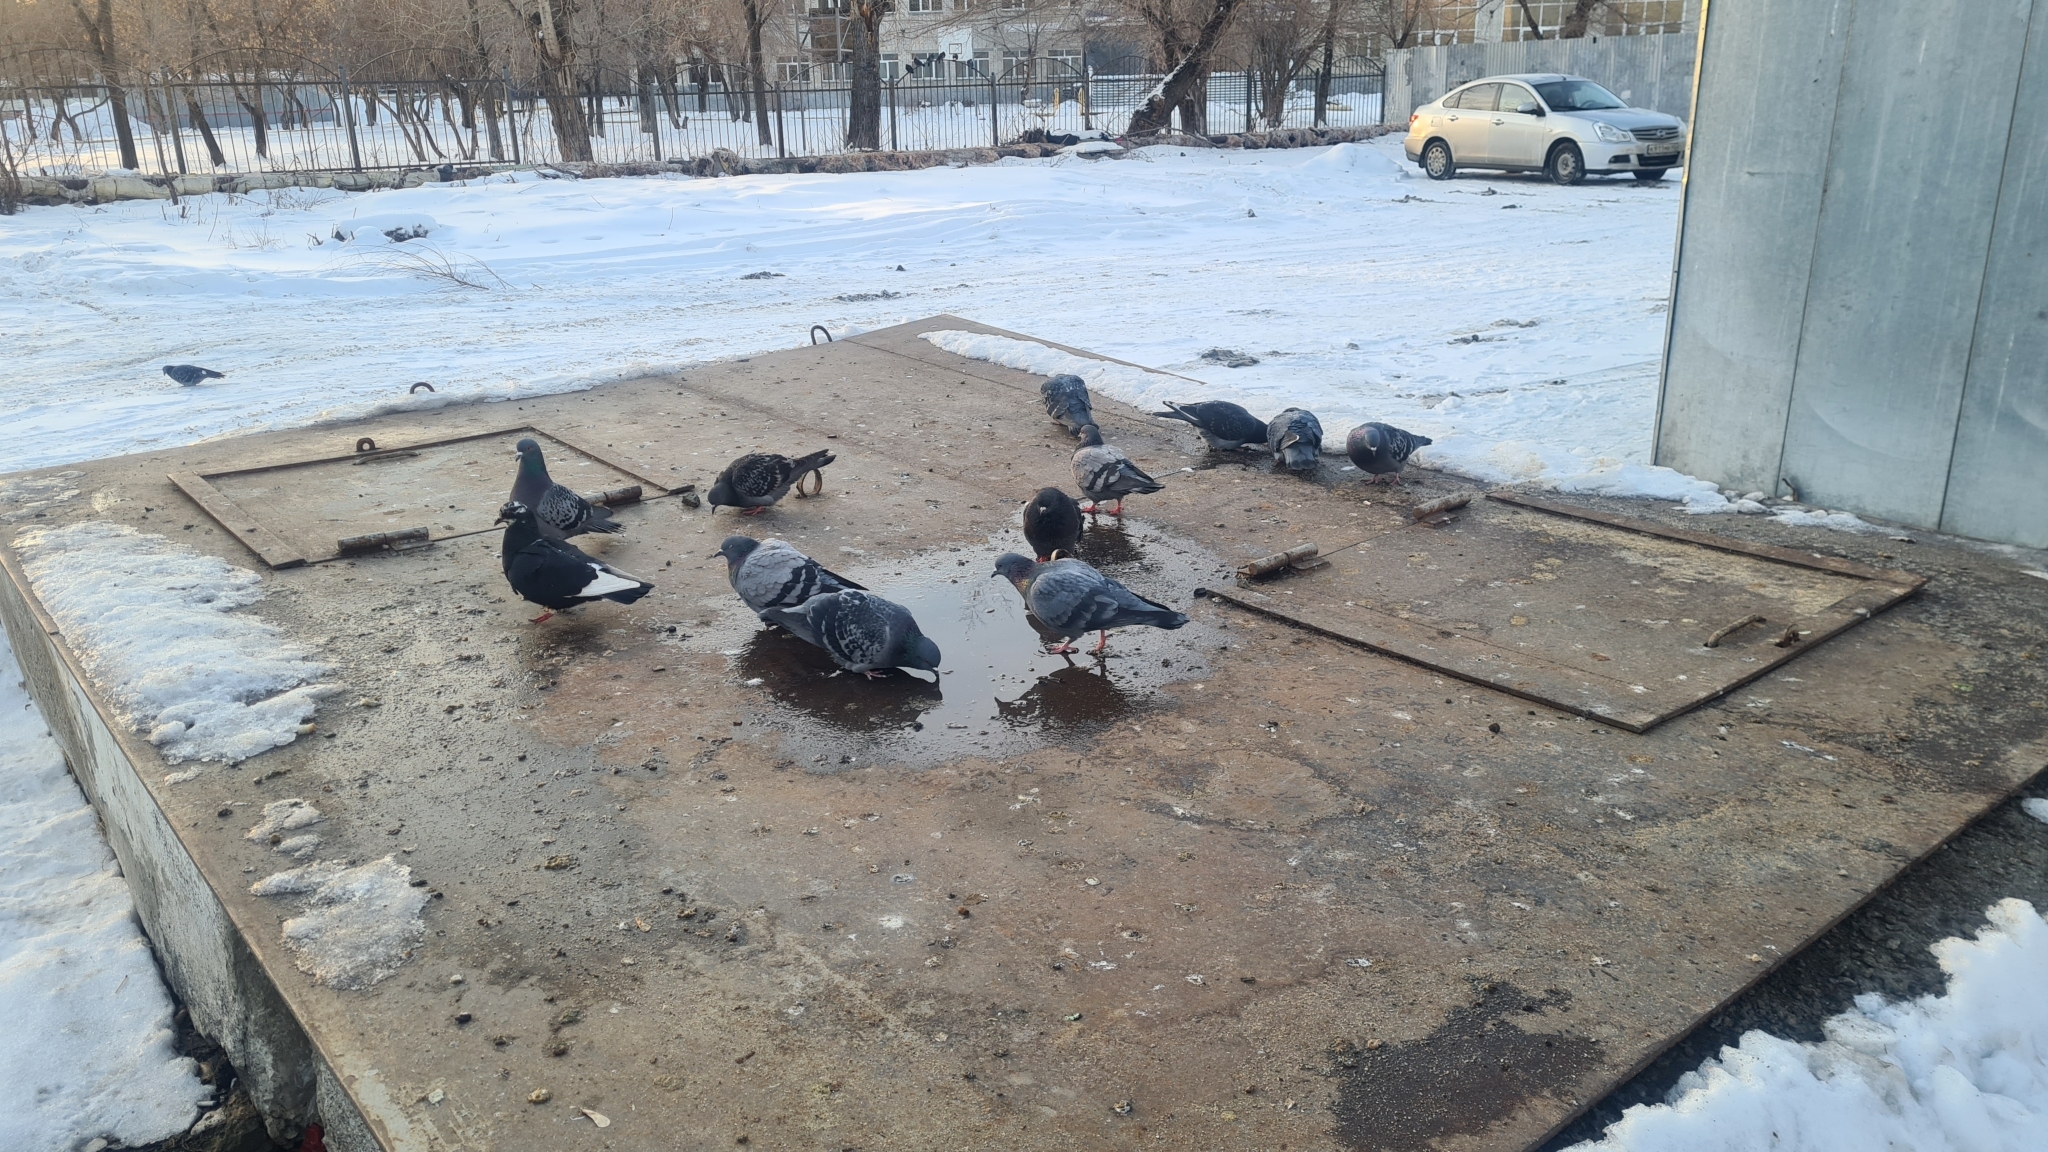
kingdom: Animalia
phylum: Chordata
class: Aves
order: Columbiformes
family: Columbidae
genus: Columba
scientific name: Columba livia
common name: Rock pigeon
